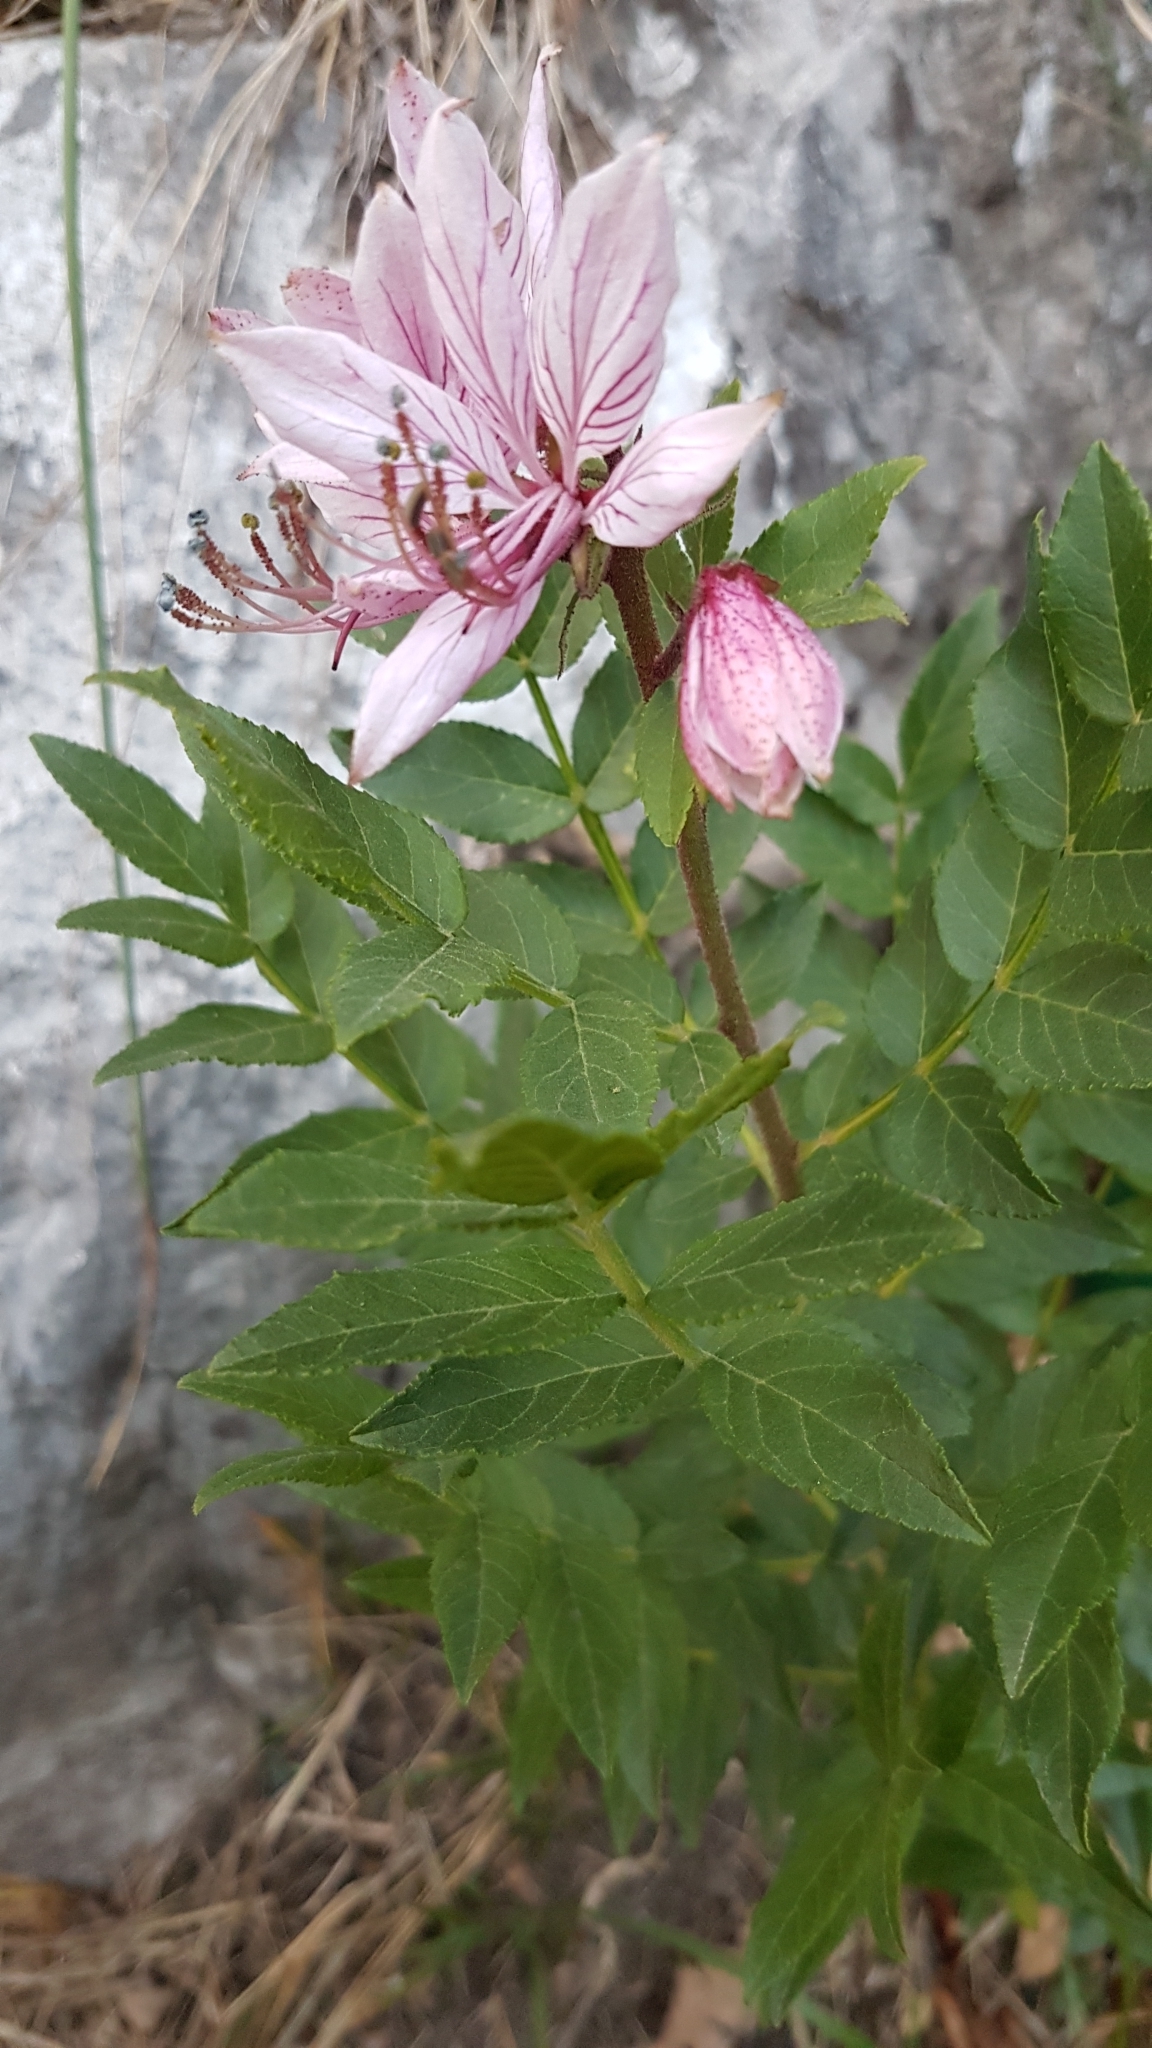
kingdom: Plantae
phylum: Tracheophyta
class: Magnoliopsida
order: Sapindales
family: Rutaceae
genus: Dictamnus
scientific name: Dictamnus albus
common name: Gasplant
